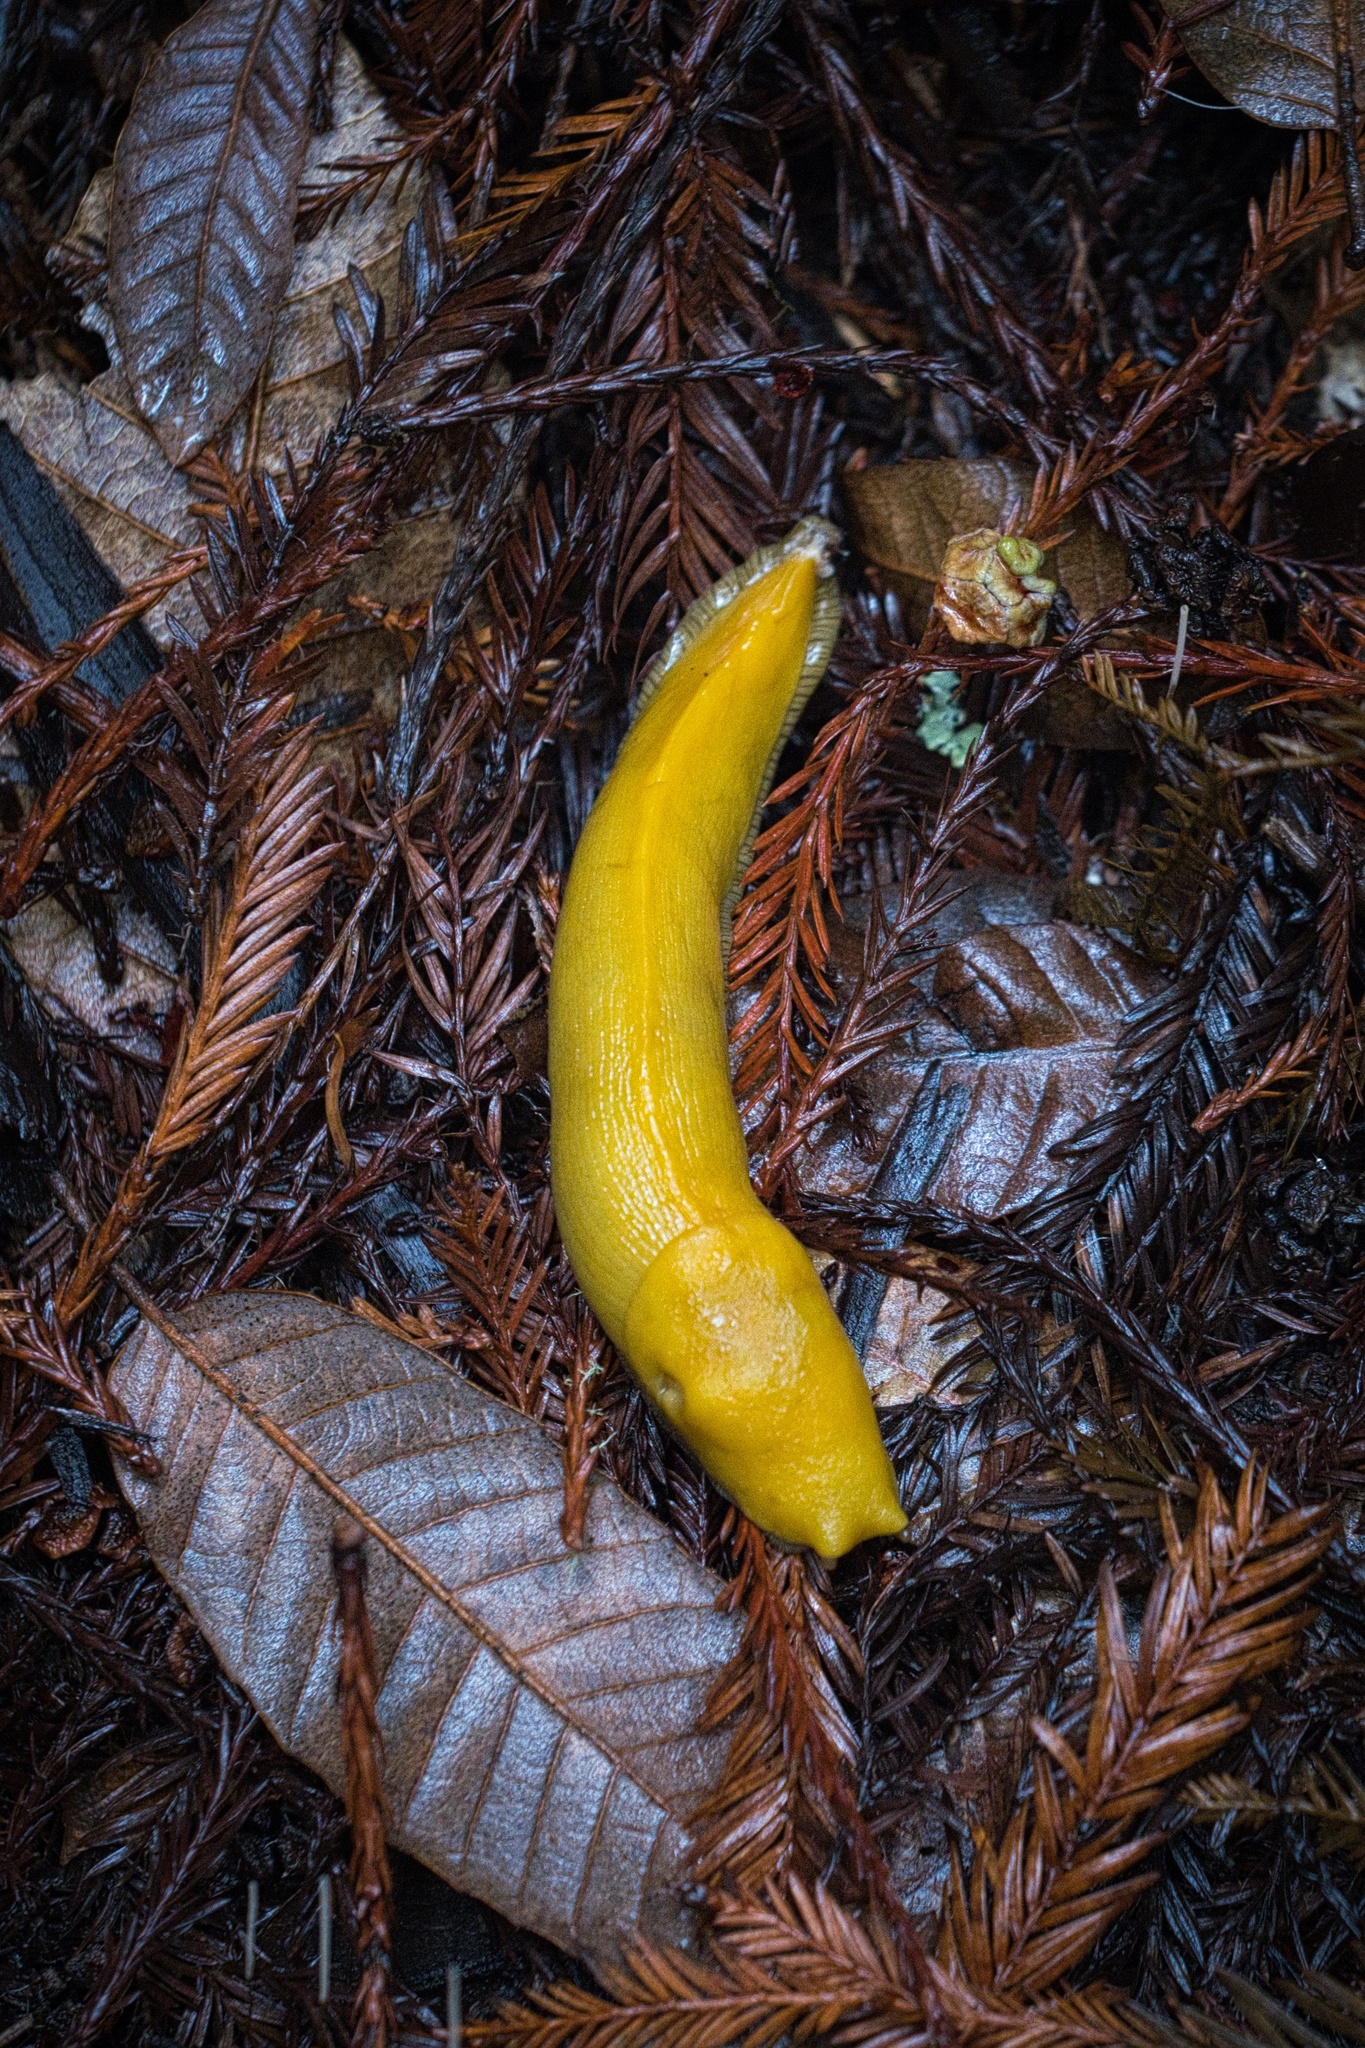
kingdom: Animalia
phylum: Mollusca
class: Gastropoda
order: Stylommatophora
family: Ariolimacidae
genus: Ariolimax
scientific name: Ariolimax californicus
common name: California banana slug
